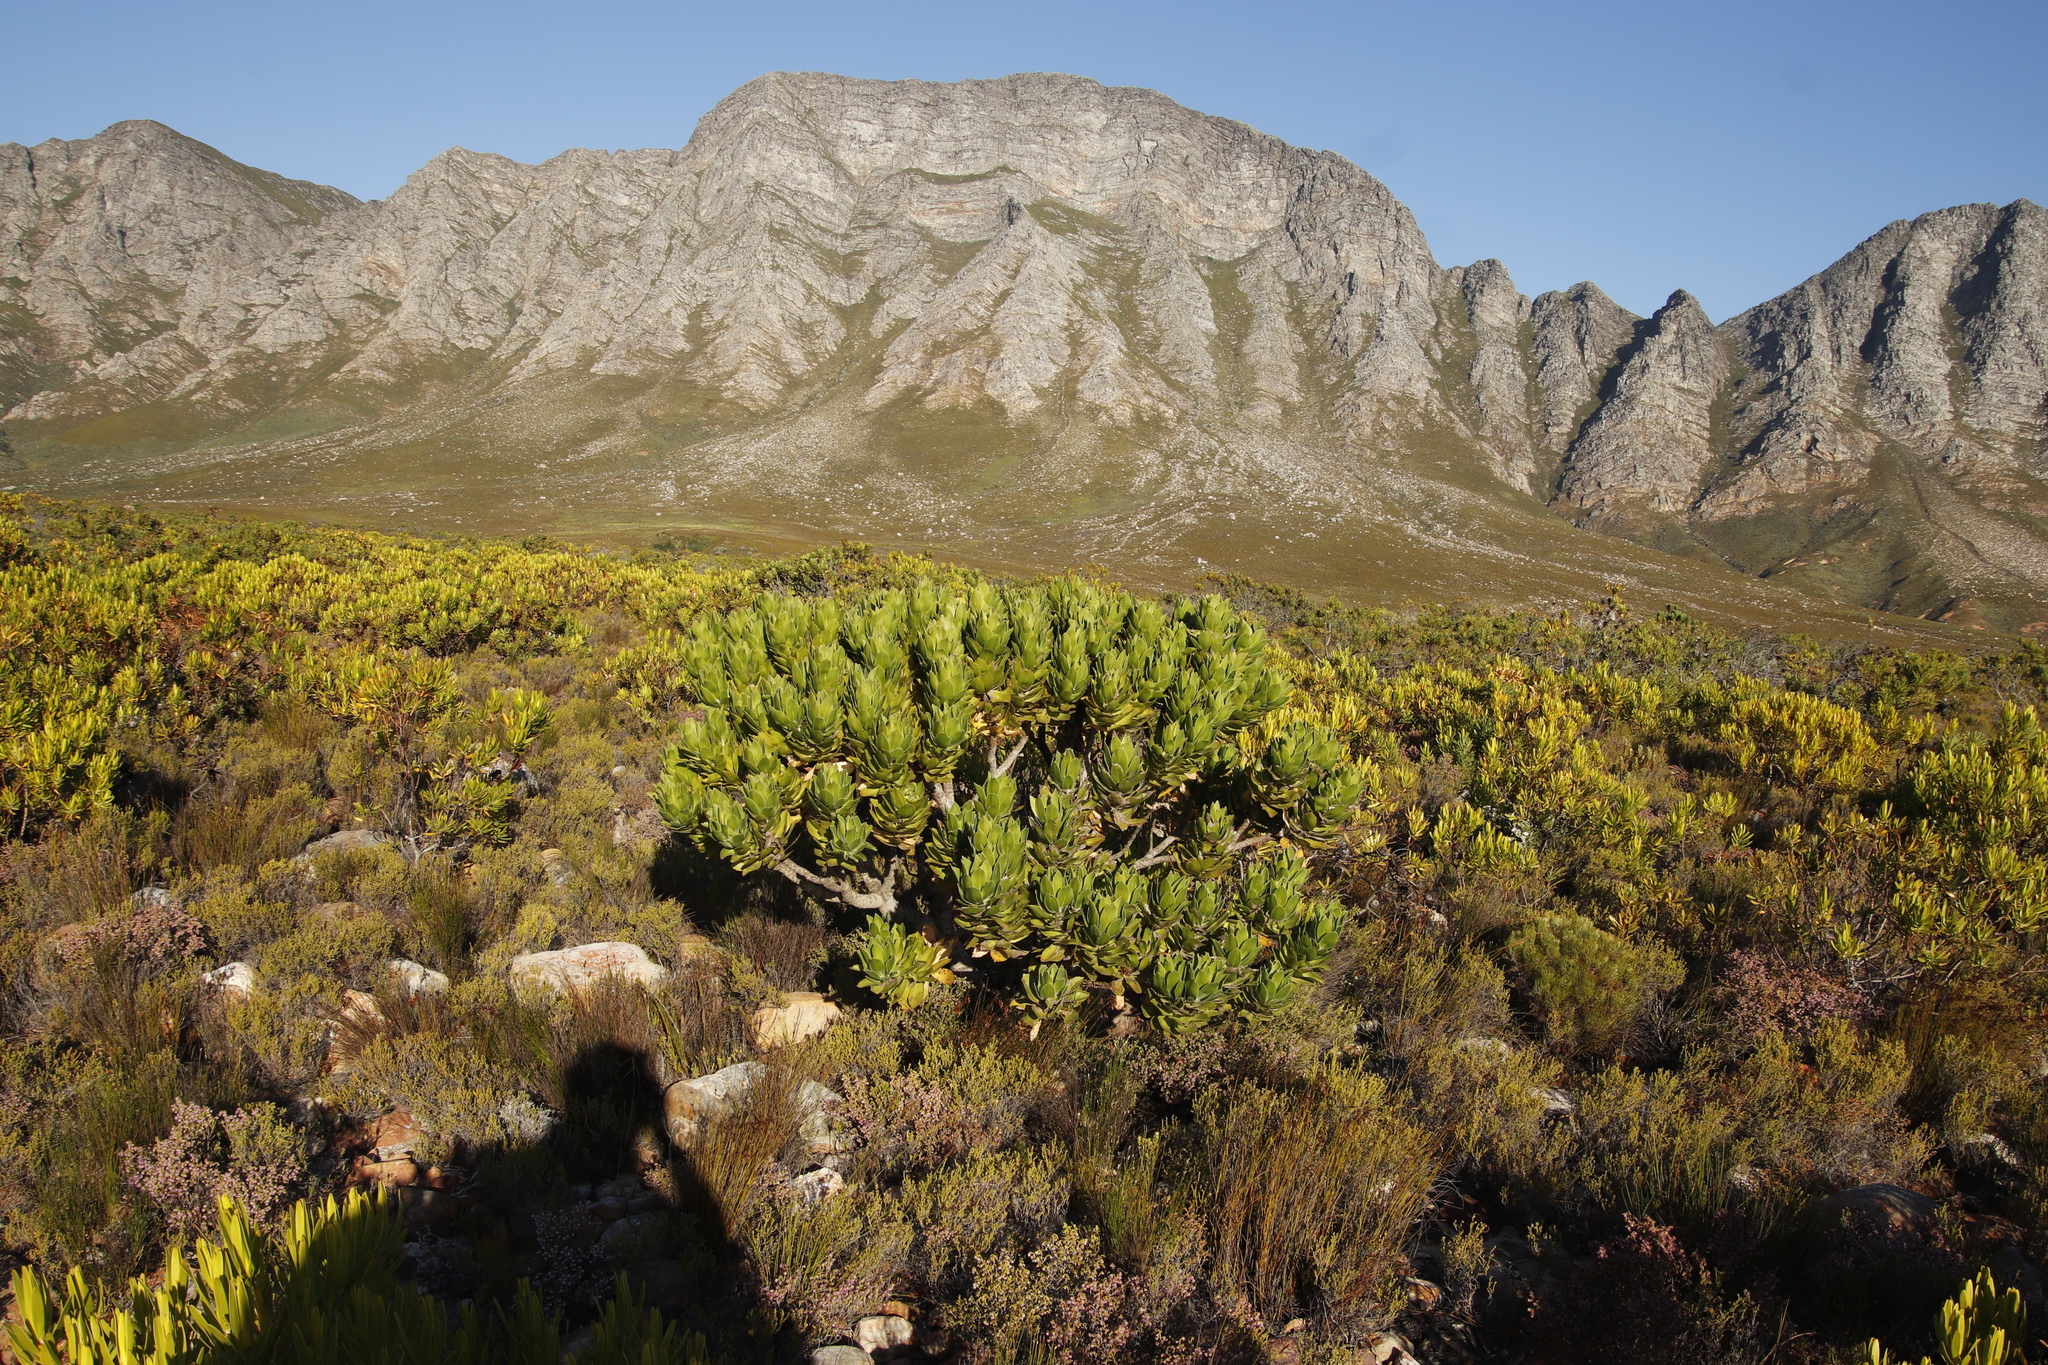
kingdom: Plantae
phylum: Tracheophyta
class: Magnoliopsida
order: Proteales
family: Proteaceae
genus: Leucospermum
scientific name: Leucospermum conocarpodendron
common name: Tree pincushion
